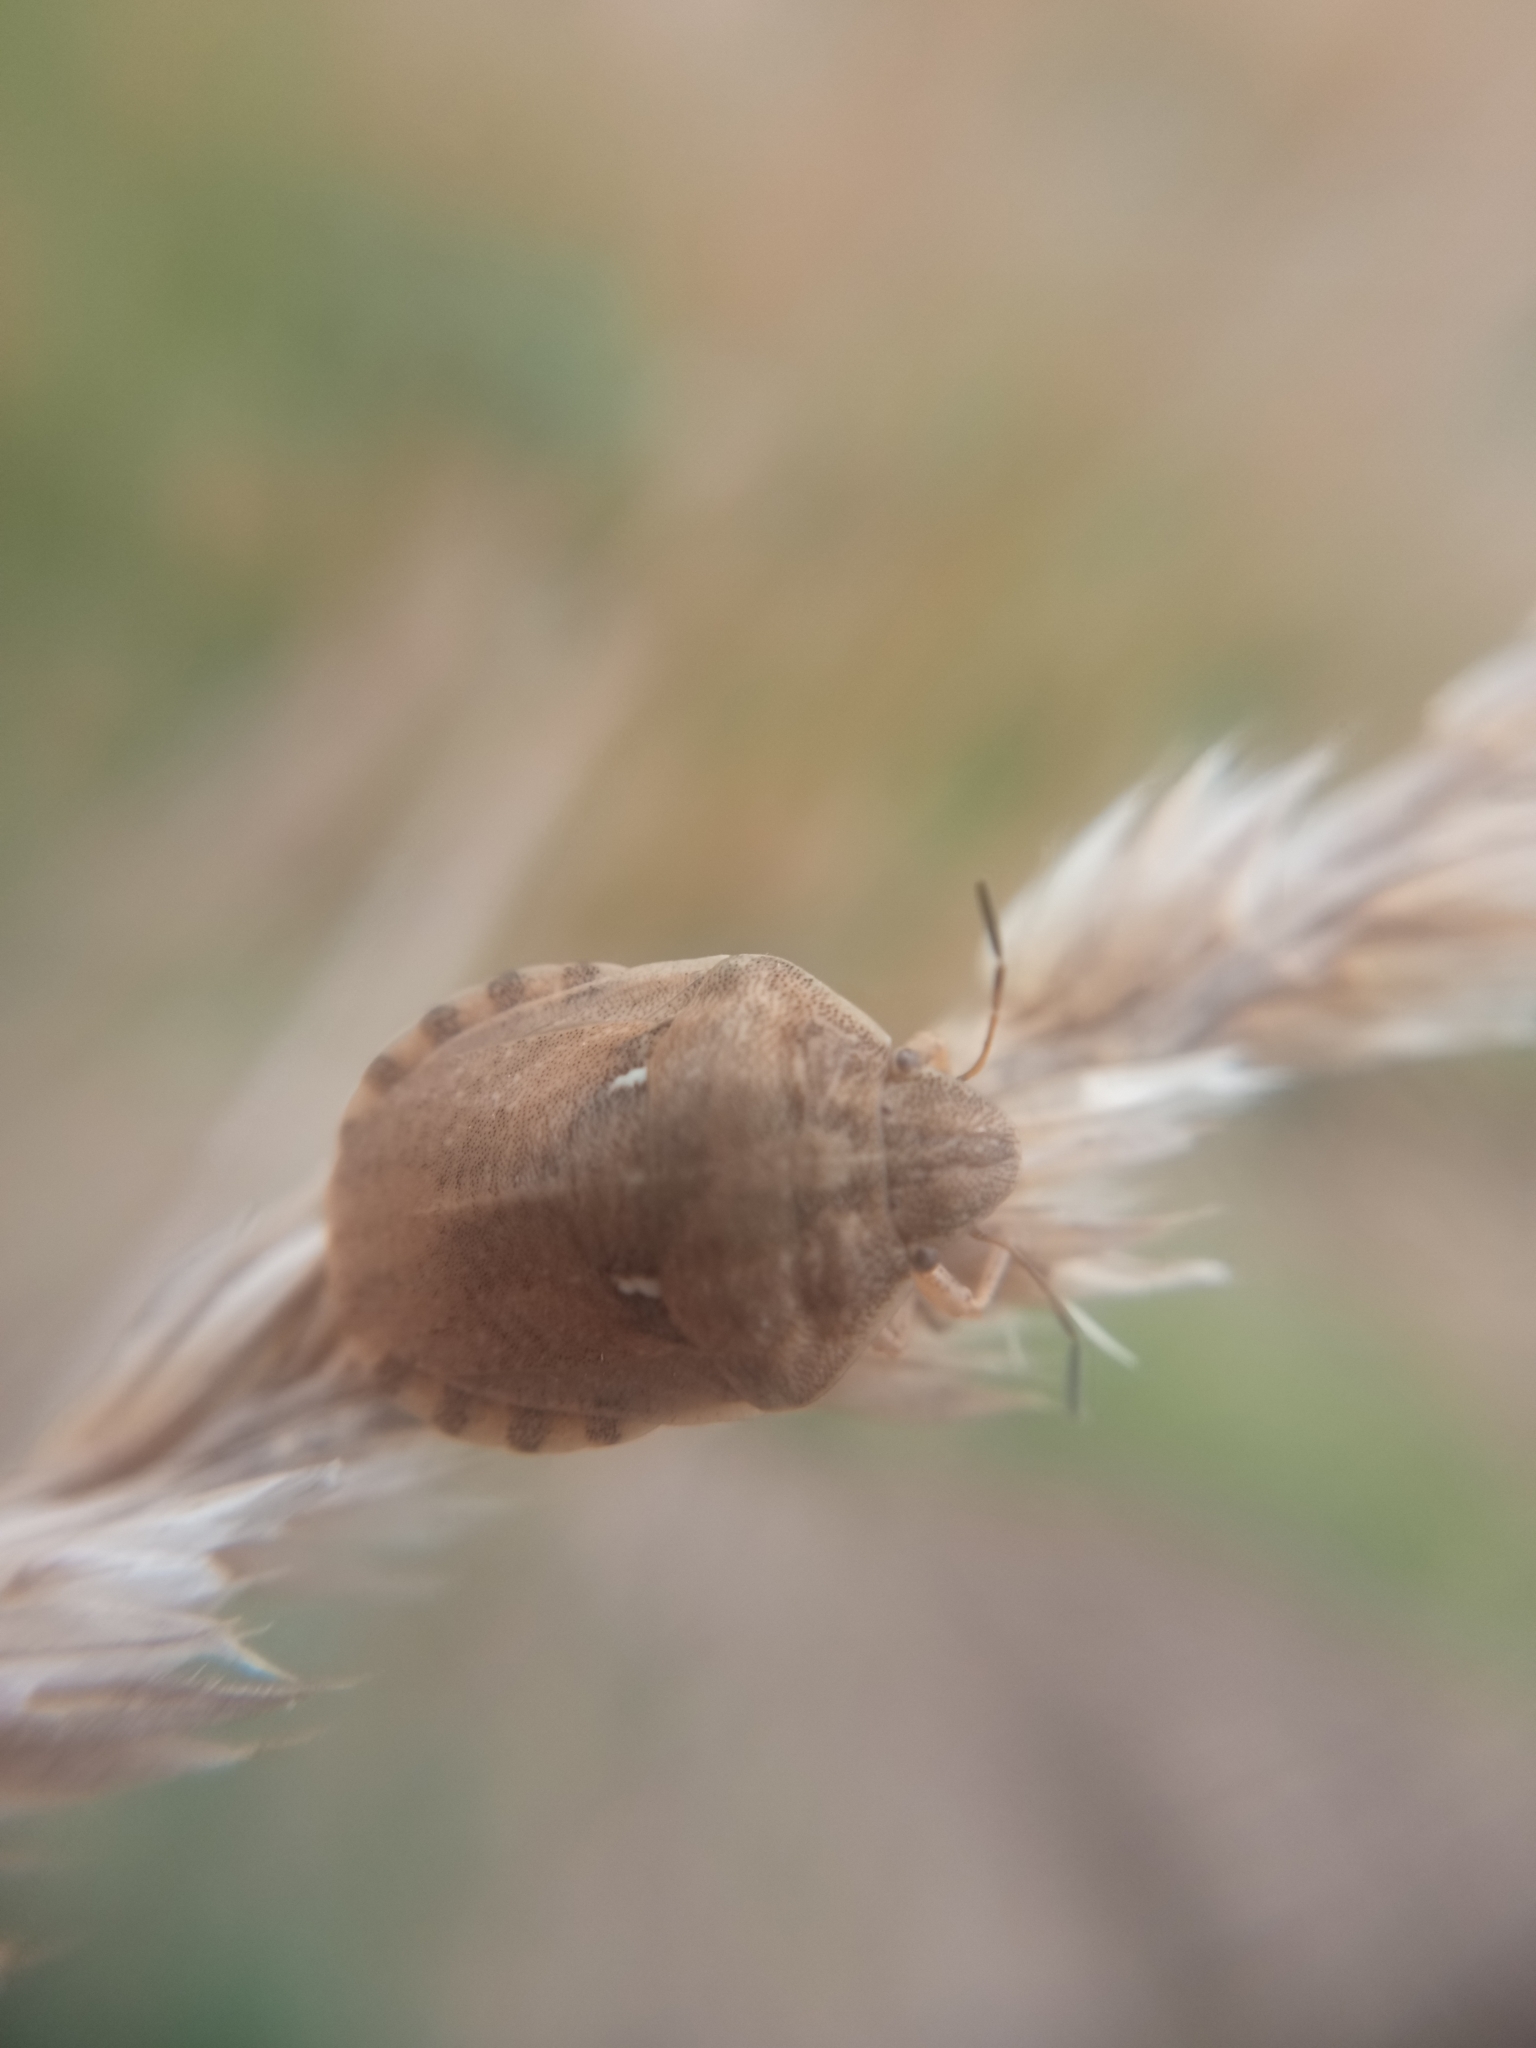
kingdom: Animalia
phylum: Arthropoda
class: Insecta
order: Hemiptera
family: Scutelleridae
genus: Eurygaster
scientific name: Eurygaster maura
